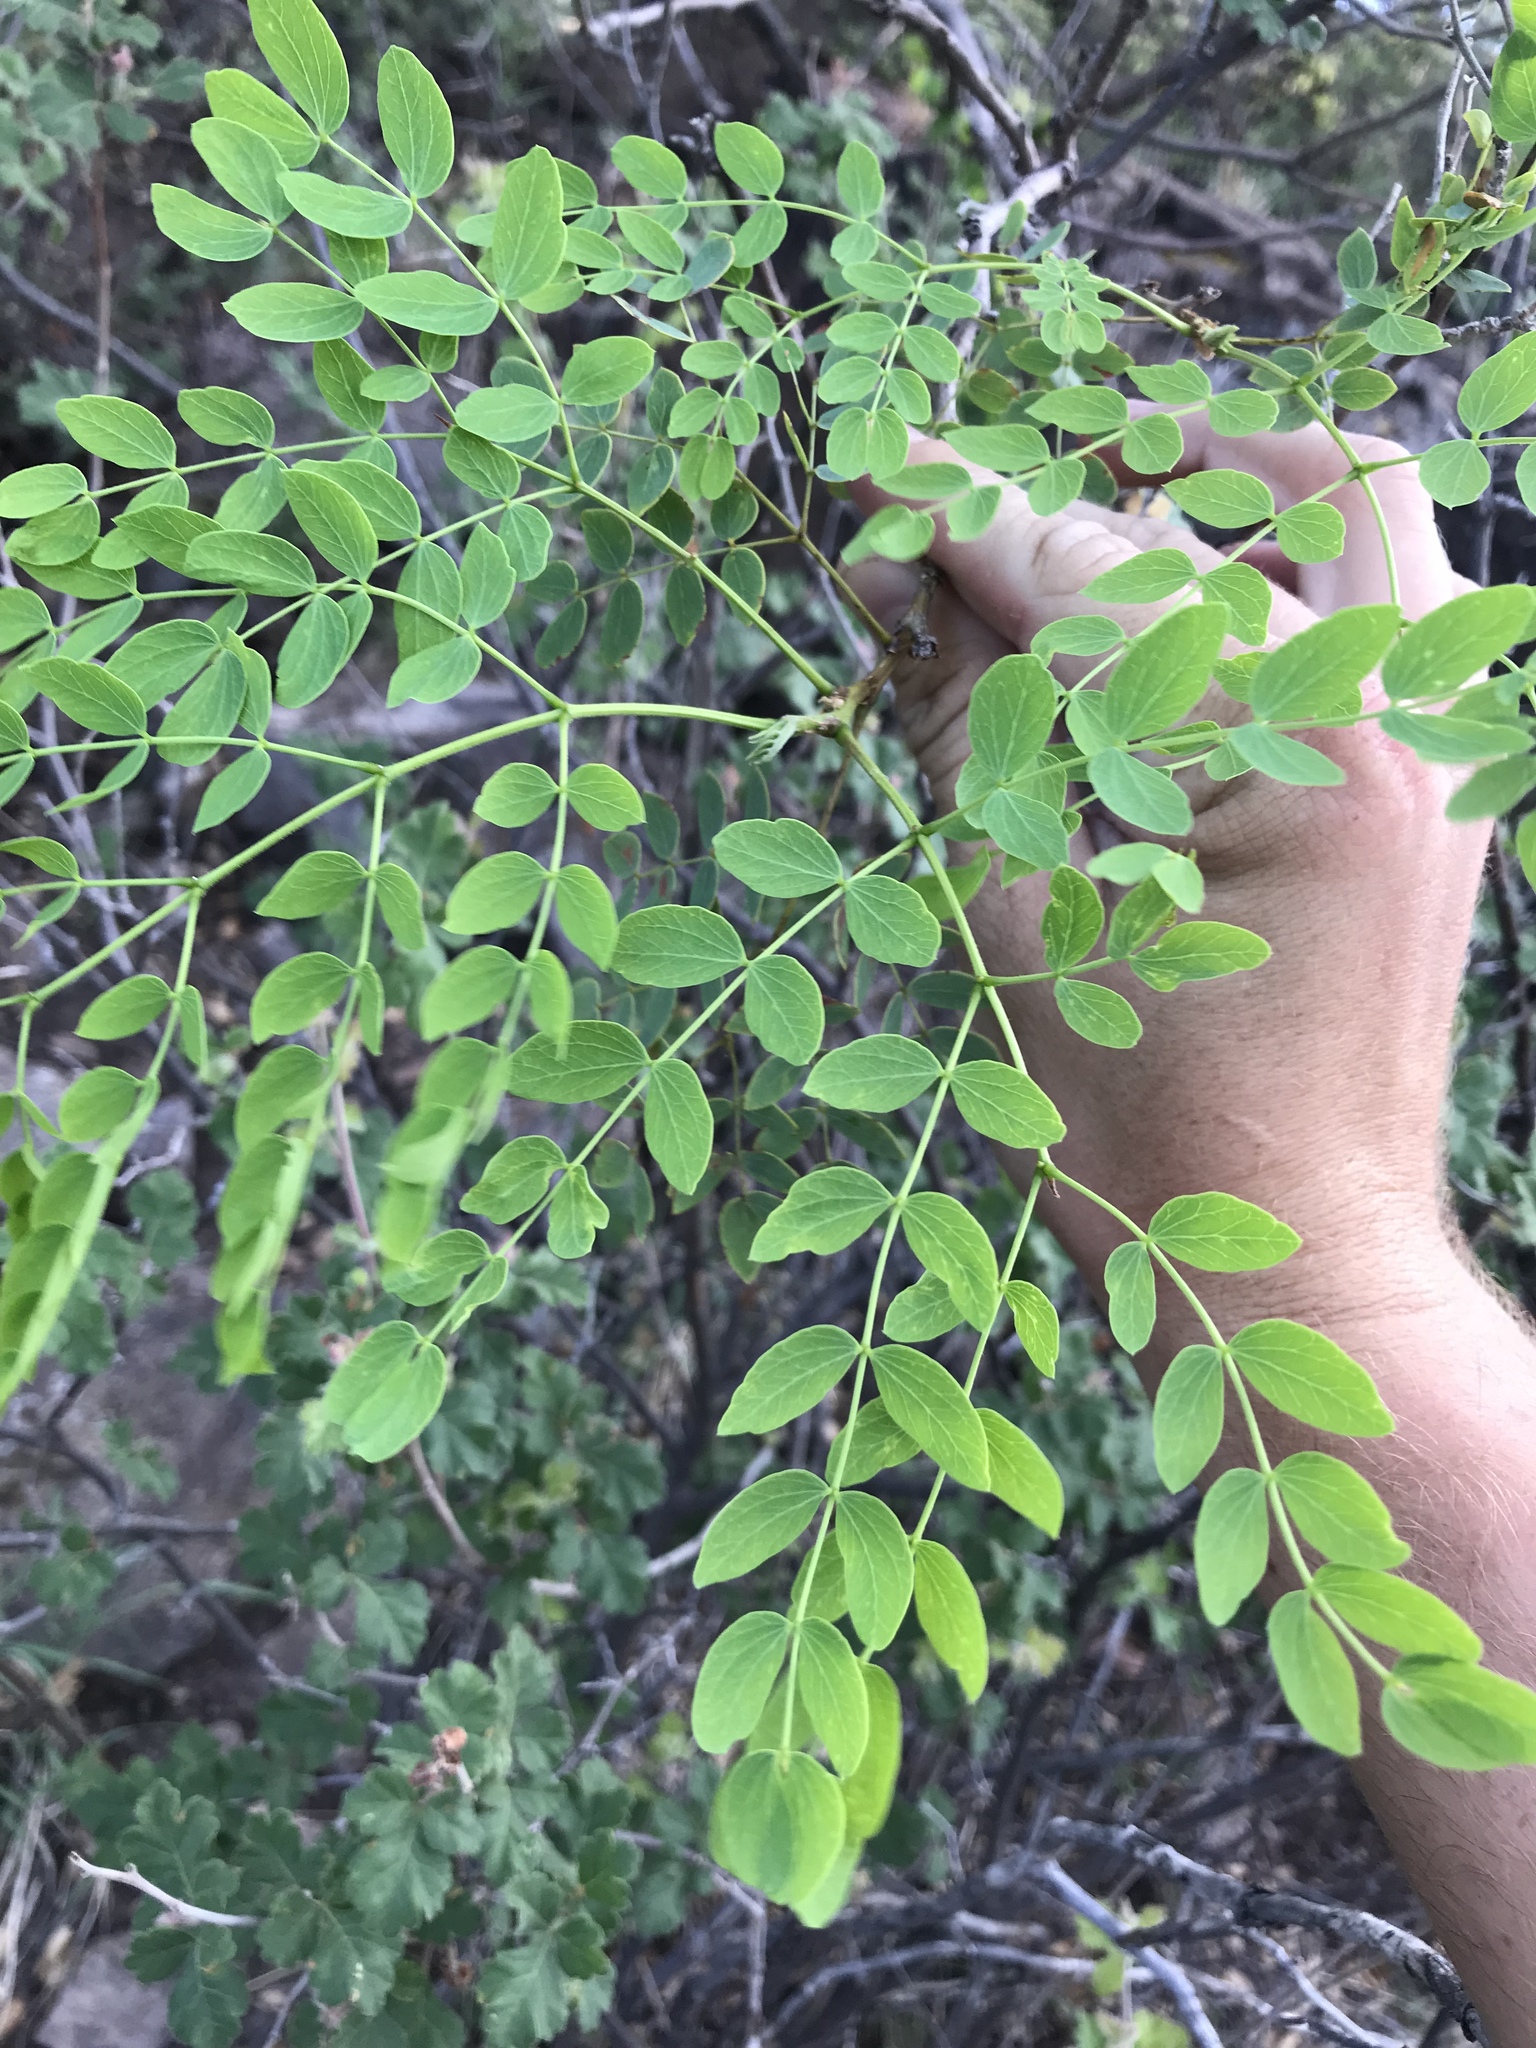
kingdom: Plantae
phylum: Tracheophyta
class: Magnoliopsida
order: Fabales
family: Fabaceae
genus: Leucaena
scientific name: Leucaena retusa
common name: Littleleaf leadtree
